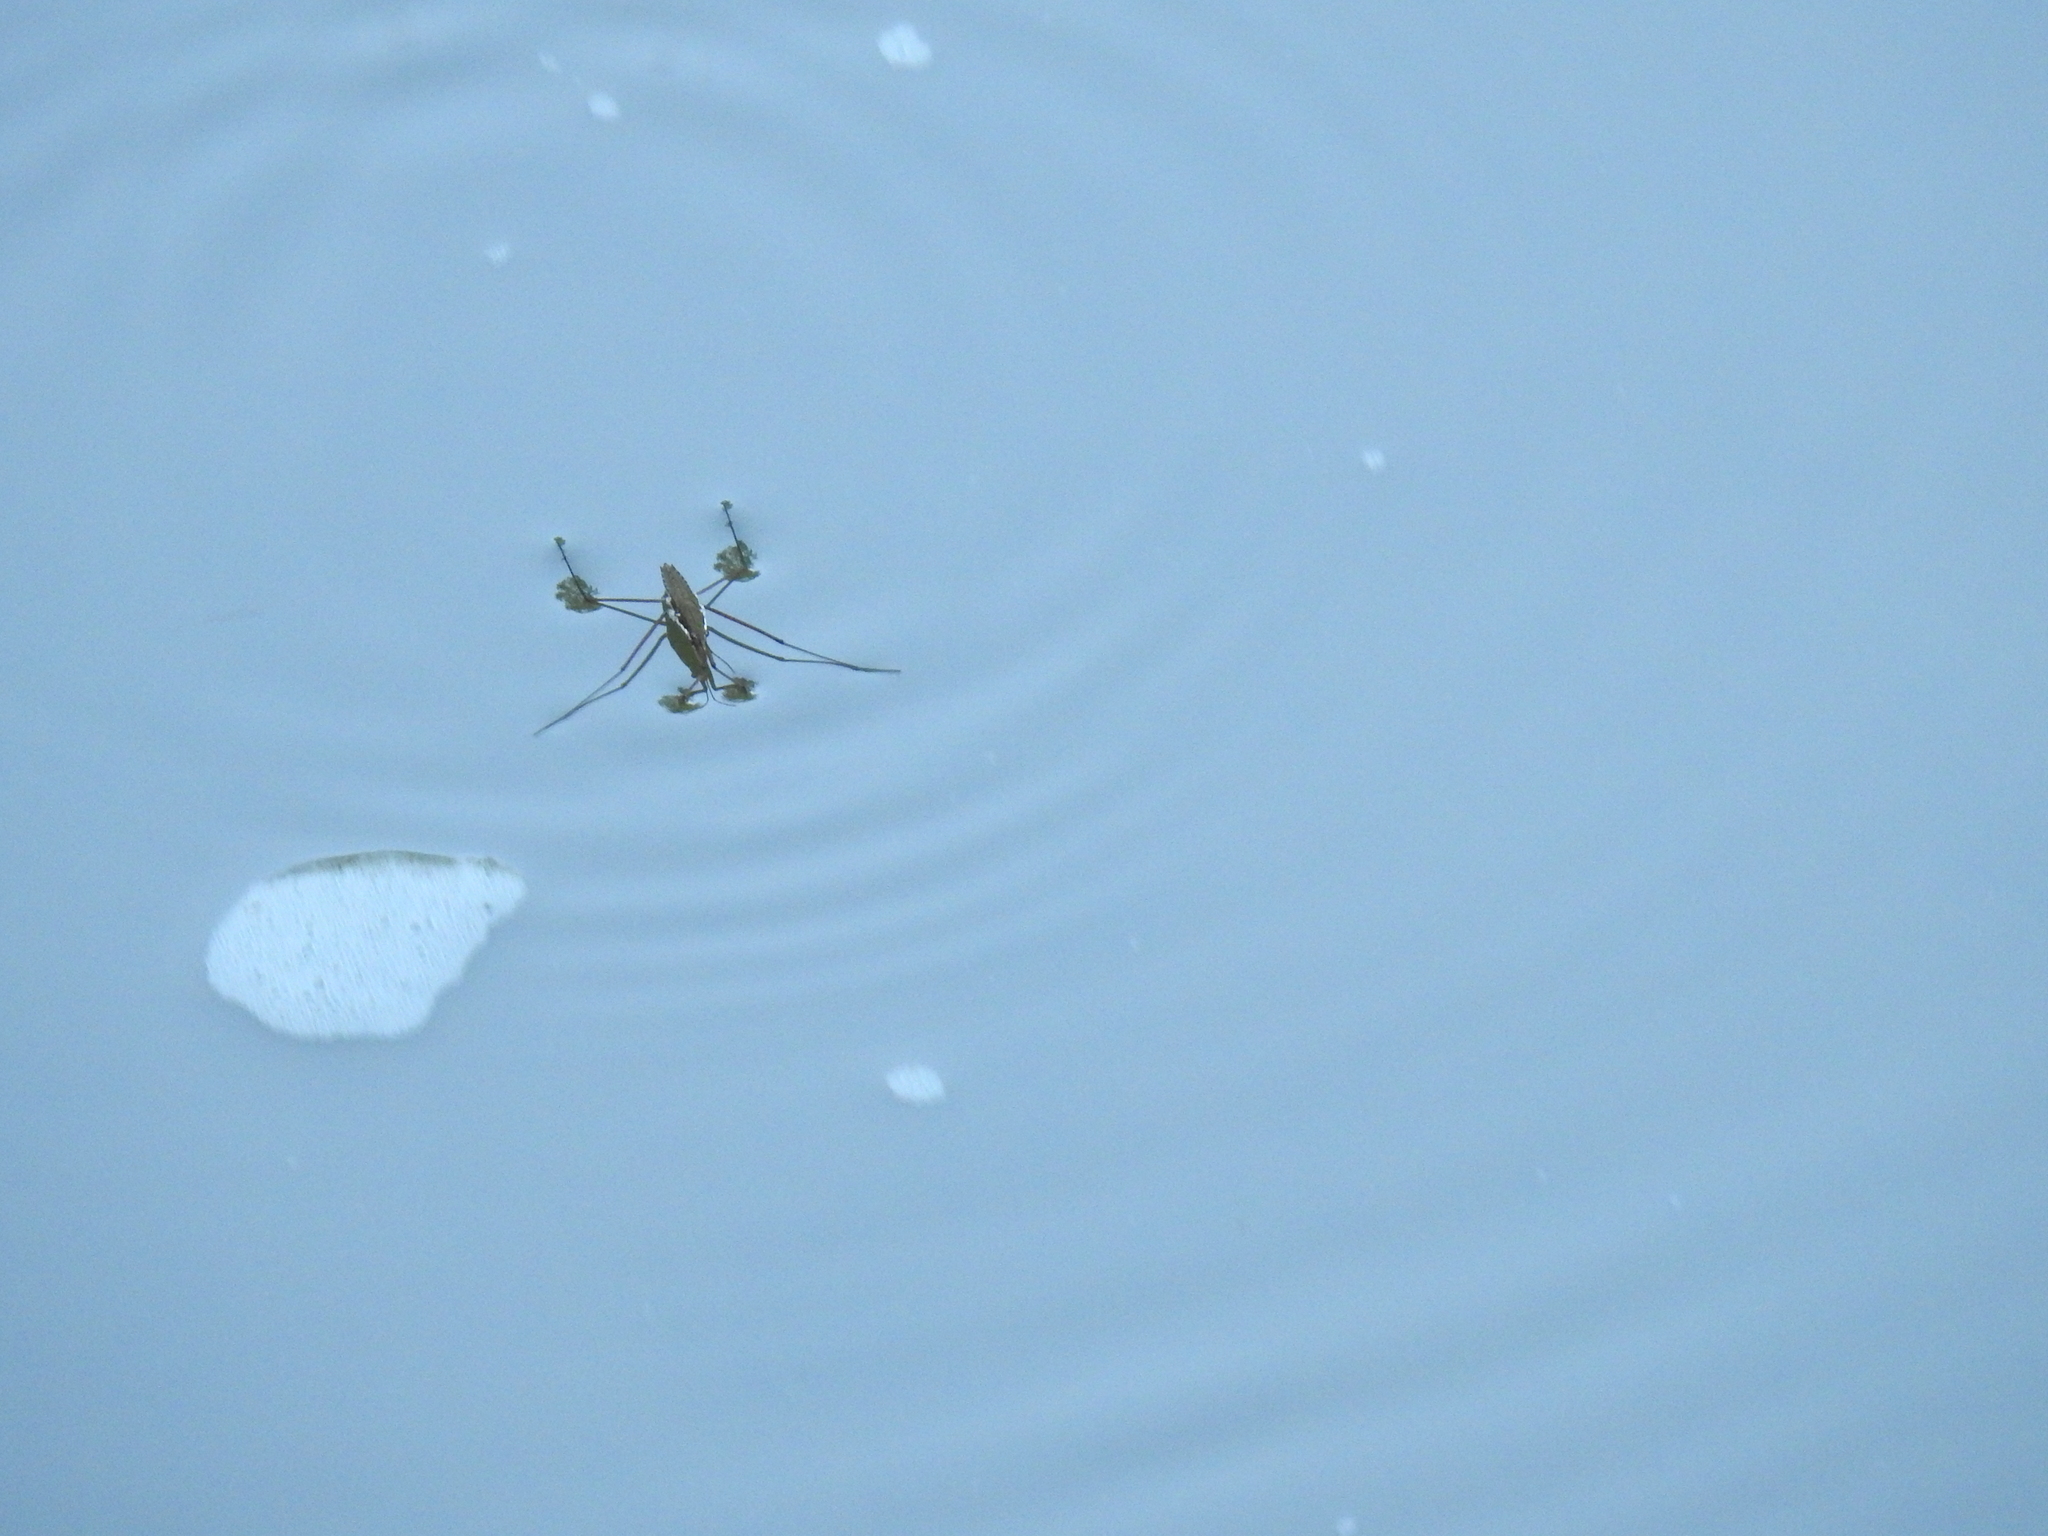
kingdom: Animalia
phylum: Arthropoda
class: Insecta
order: Hemiptera
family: Gerridae
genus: Aquarius
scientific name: Aquarius
